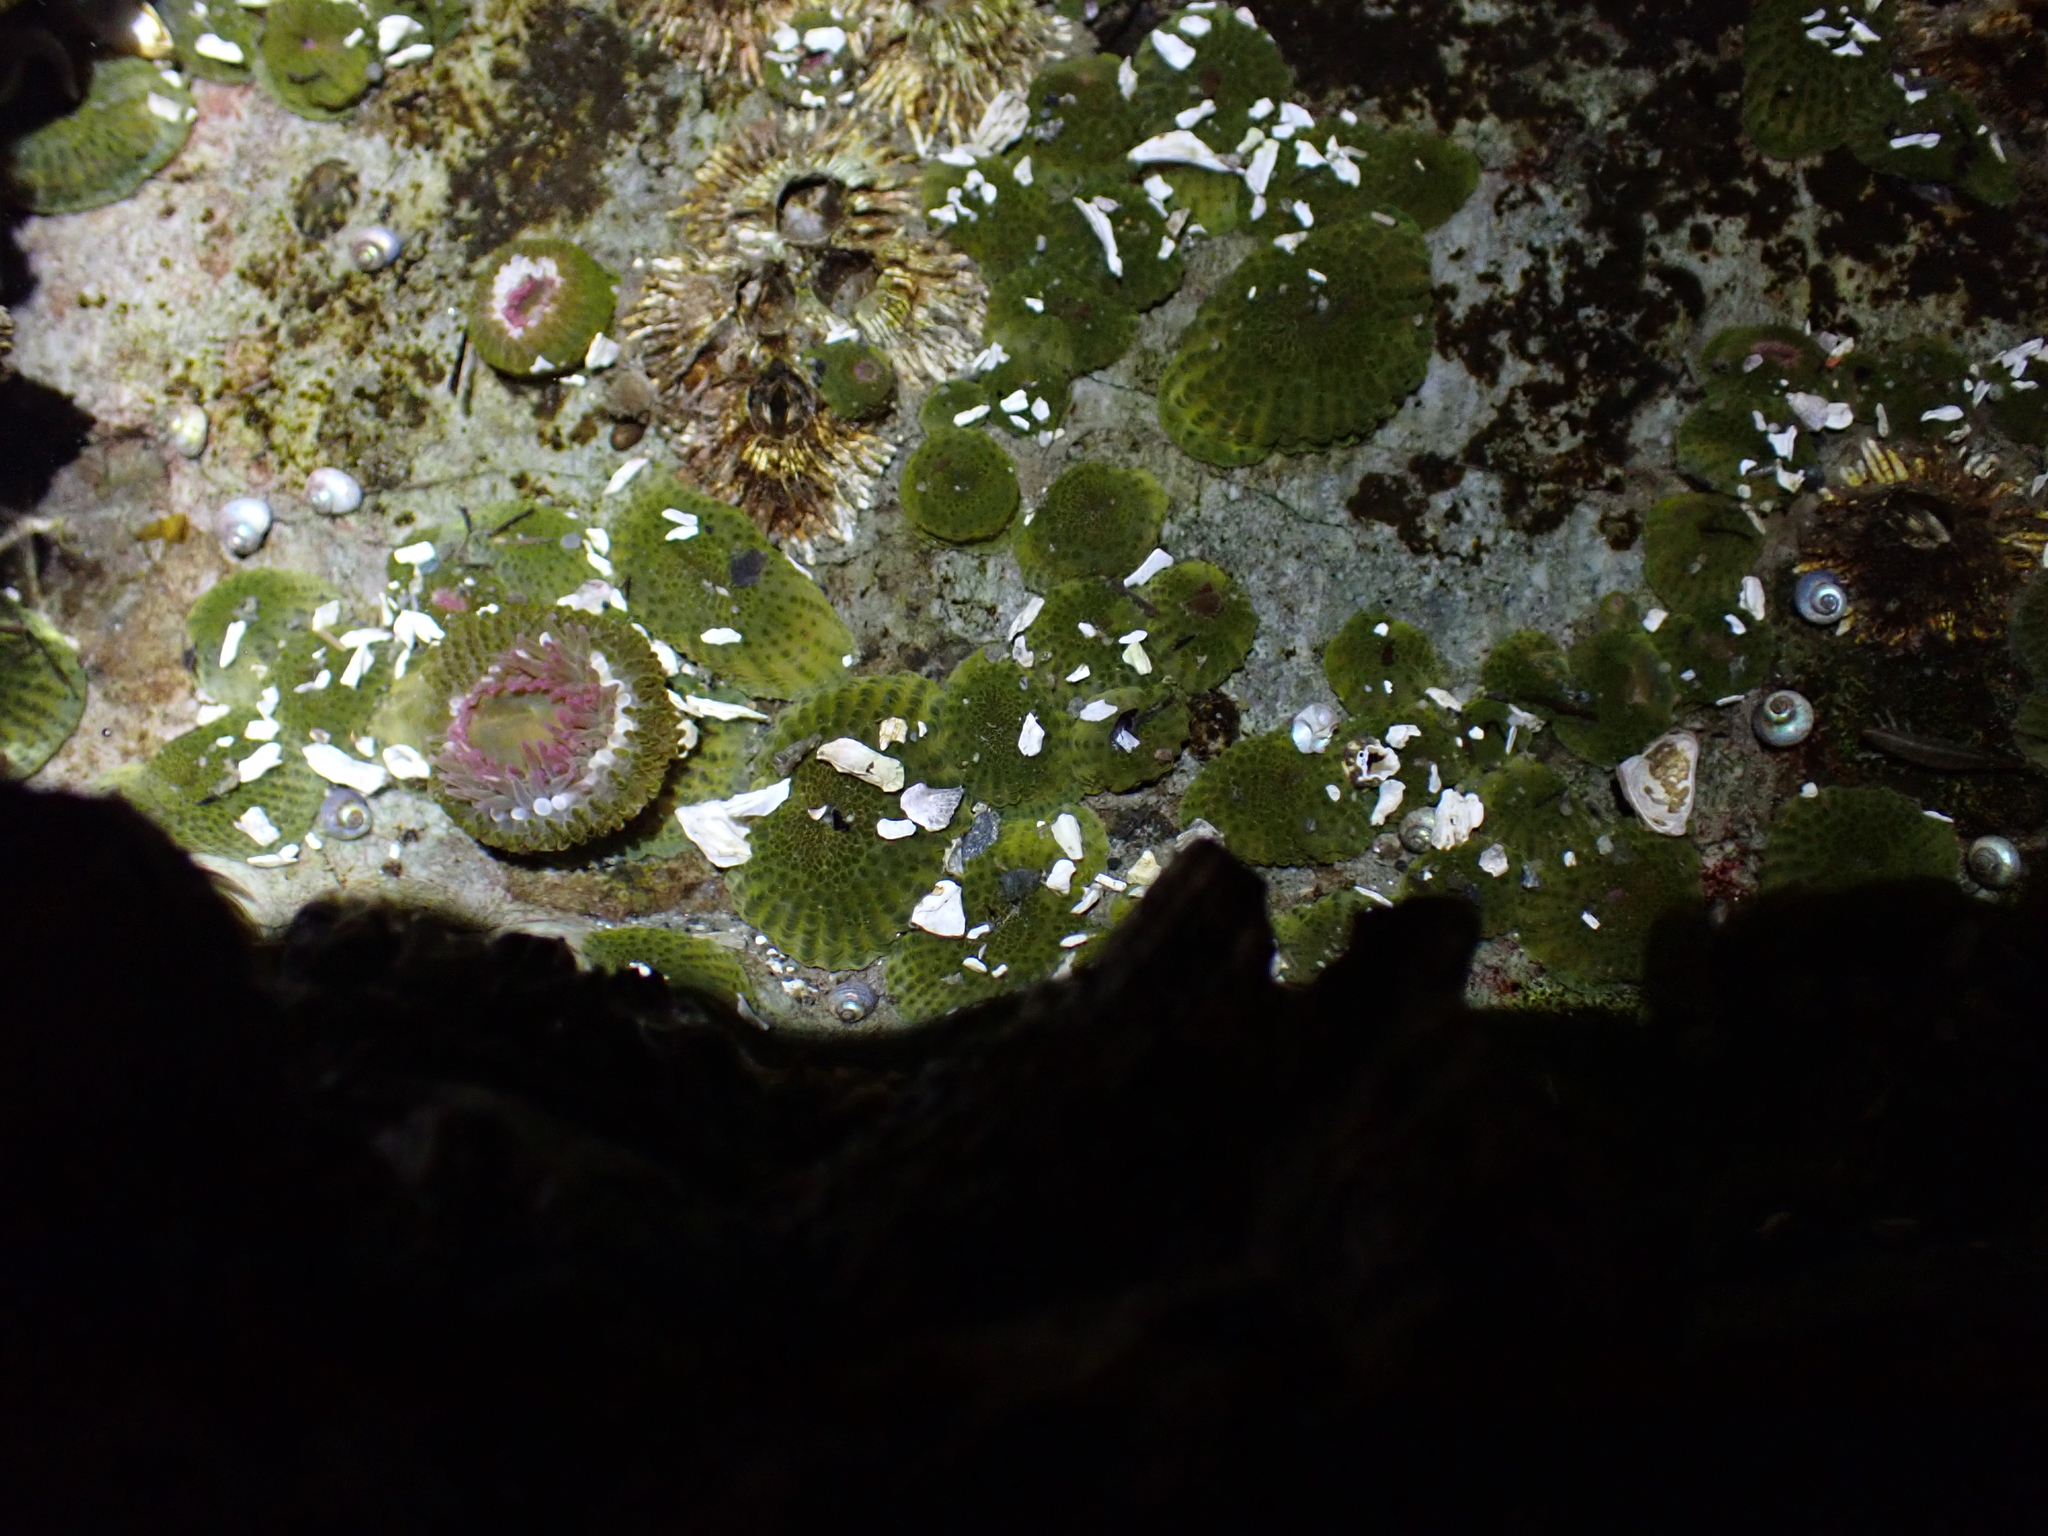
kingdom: Animalia
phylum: Cnidaria
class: Anthozoa
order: Actiniaria
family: Actiniidae
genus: Anthopleura
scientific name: Anthopleura elegantissima
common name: Clonal anemone
